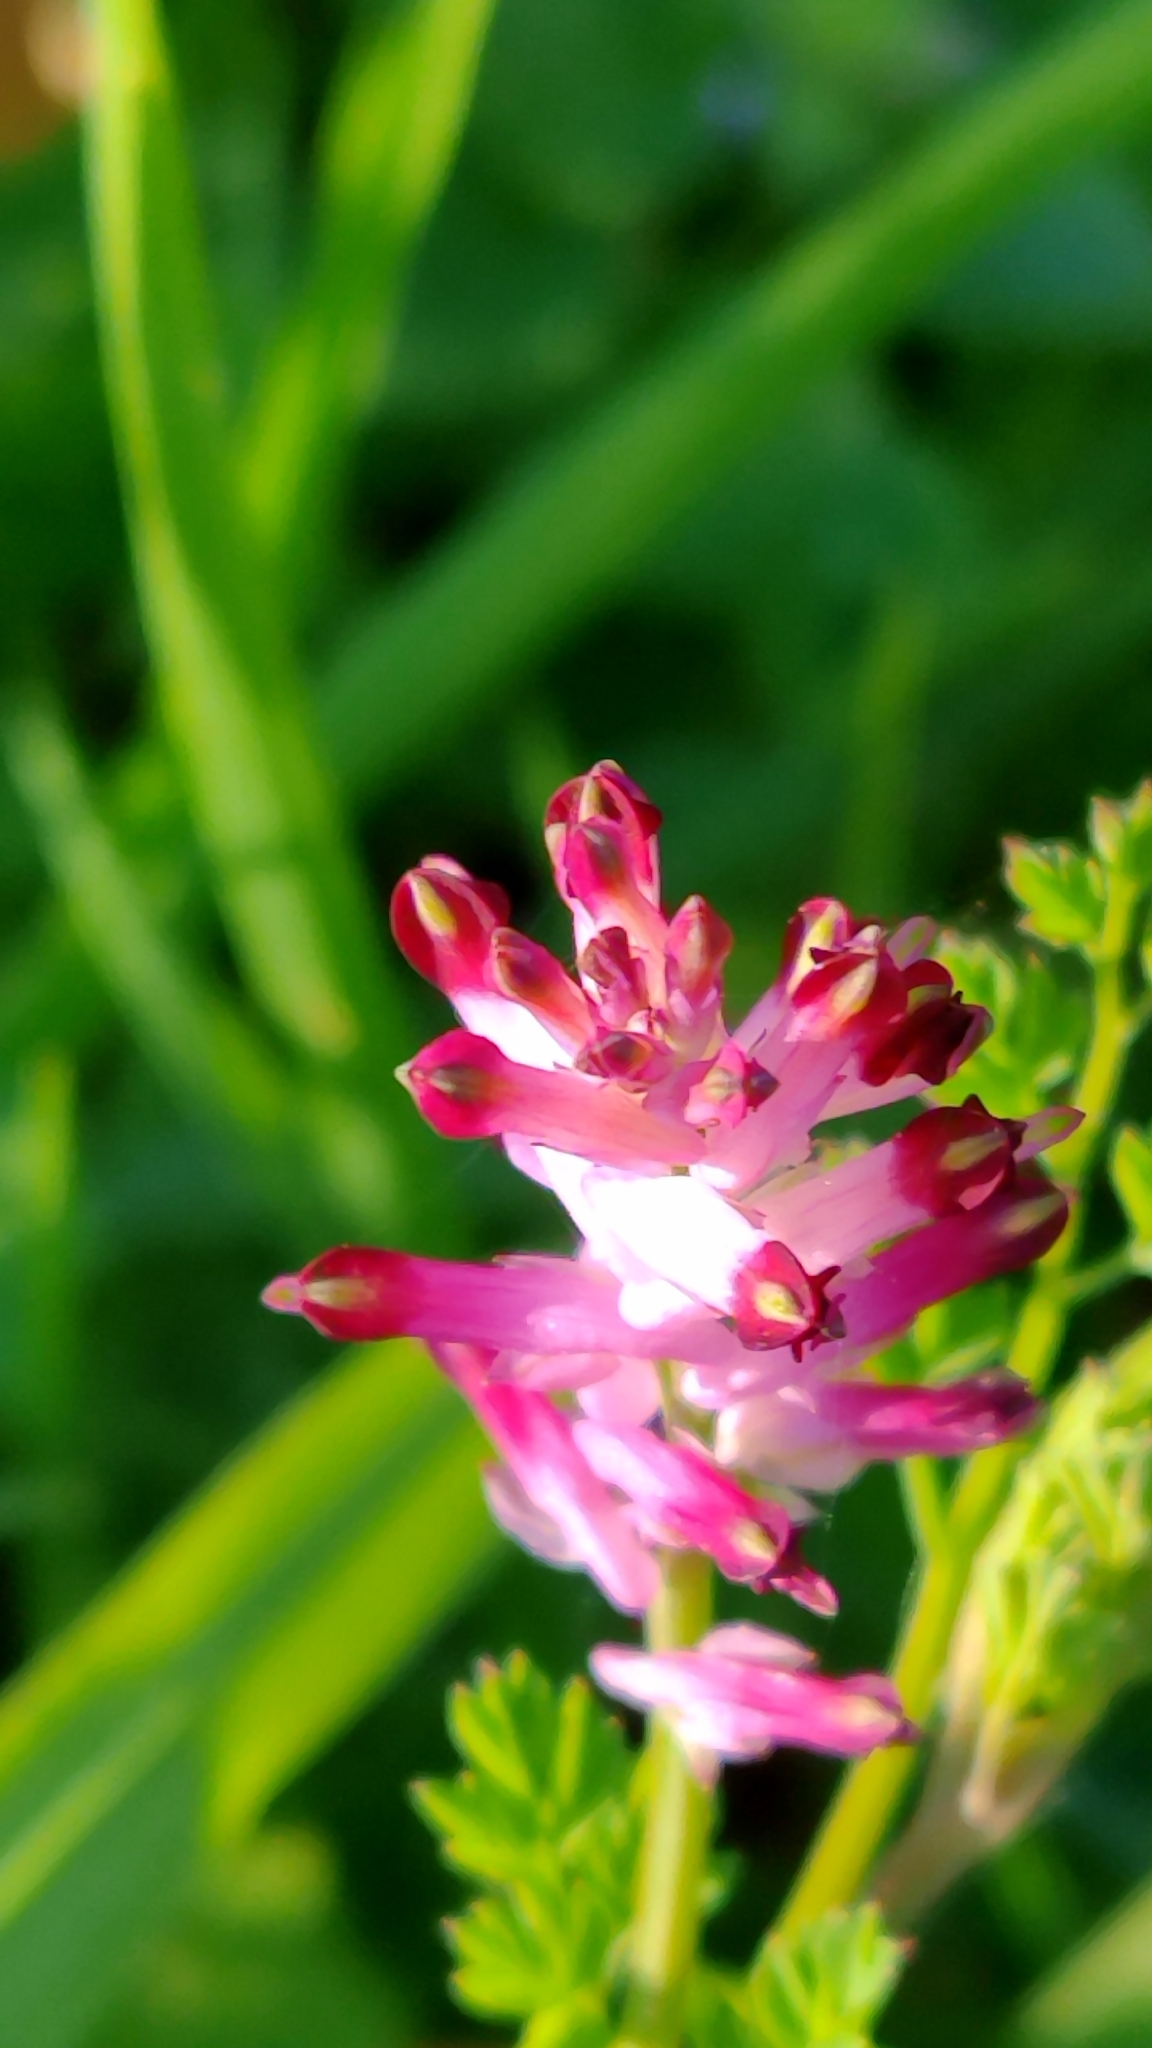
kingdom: Plantae
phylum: Tracheophyta
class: Magnoliopsida
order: Ranunculales
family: Papaveraceae
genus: Fumaria
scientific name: Fumaria officinalis
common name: Common fumitory
